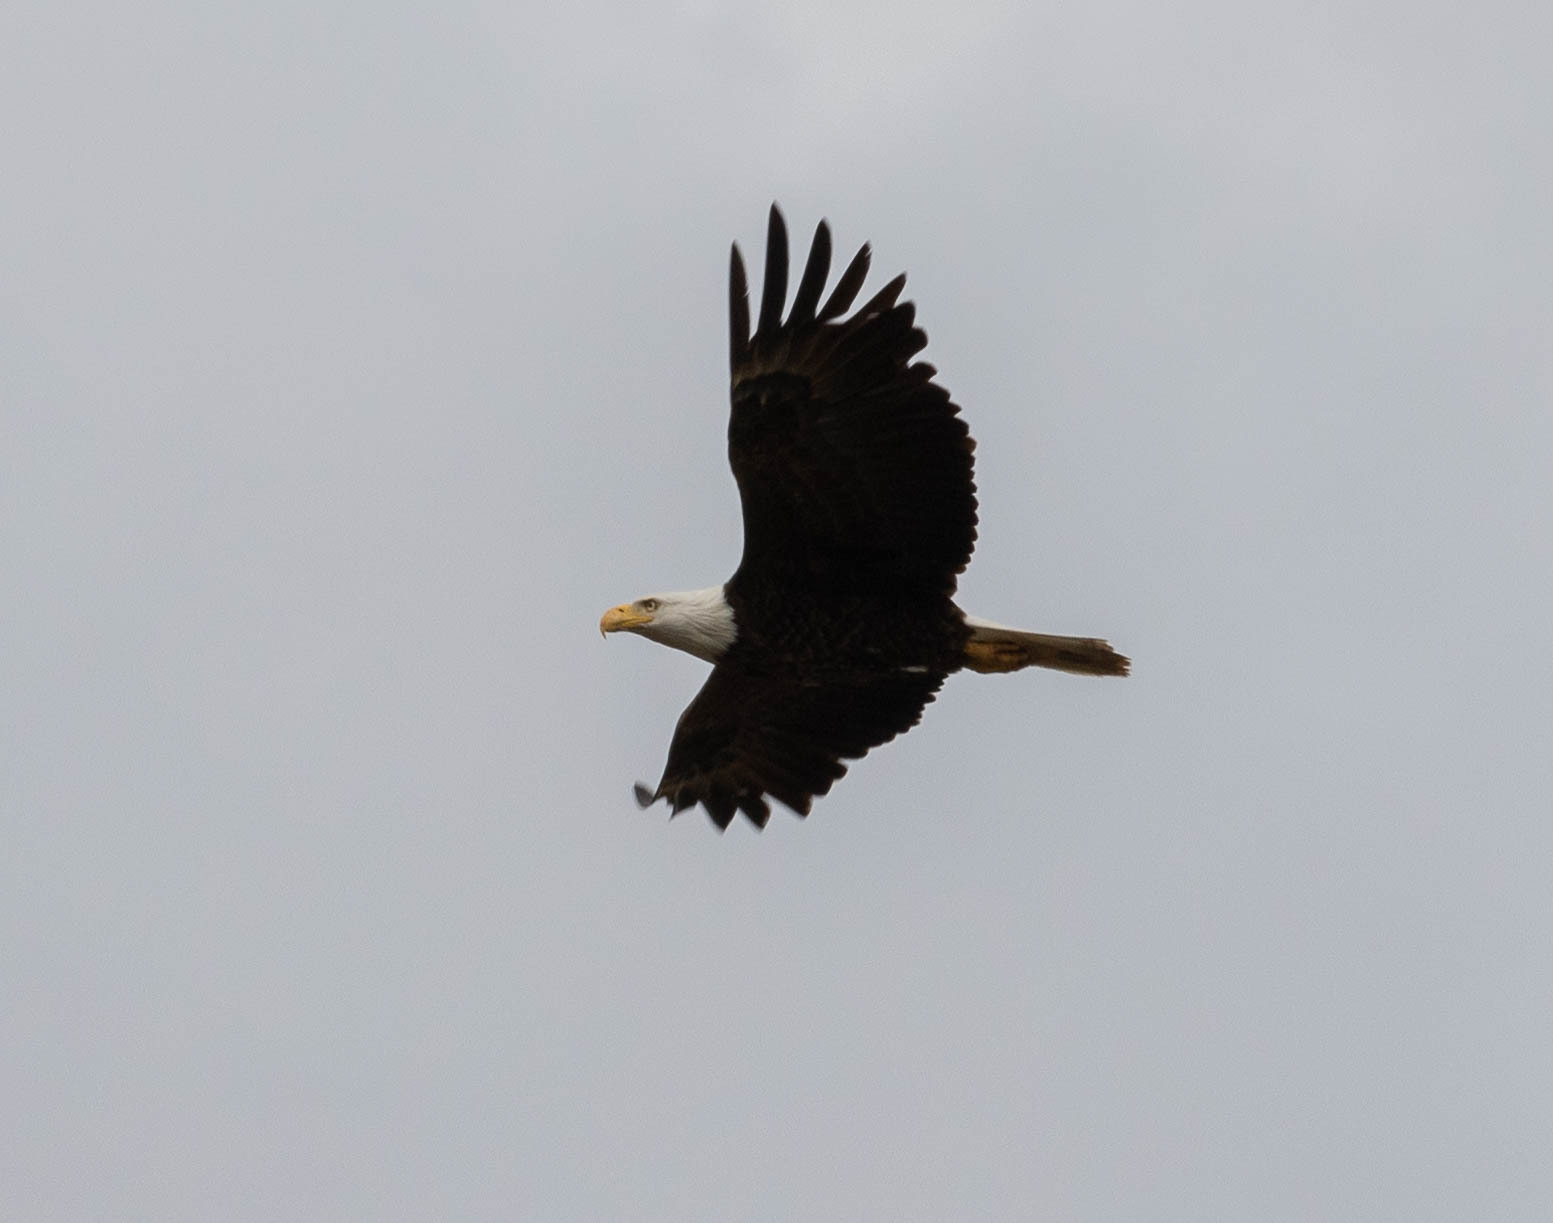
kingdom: Animalia
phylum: Chordata
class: Aves
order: Accipitriformes
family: Accipitridae
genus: Haliaeetus
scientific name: Haliaeetus leucocephalus
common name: Bald eagle
